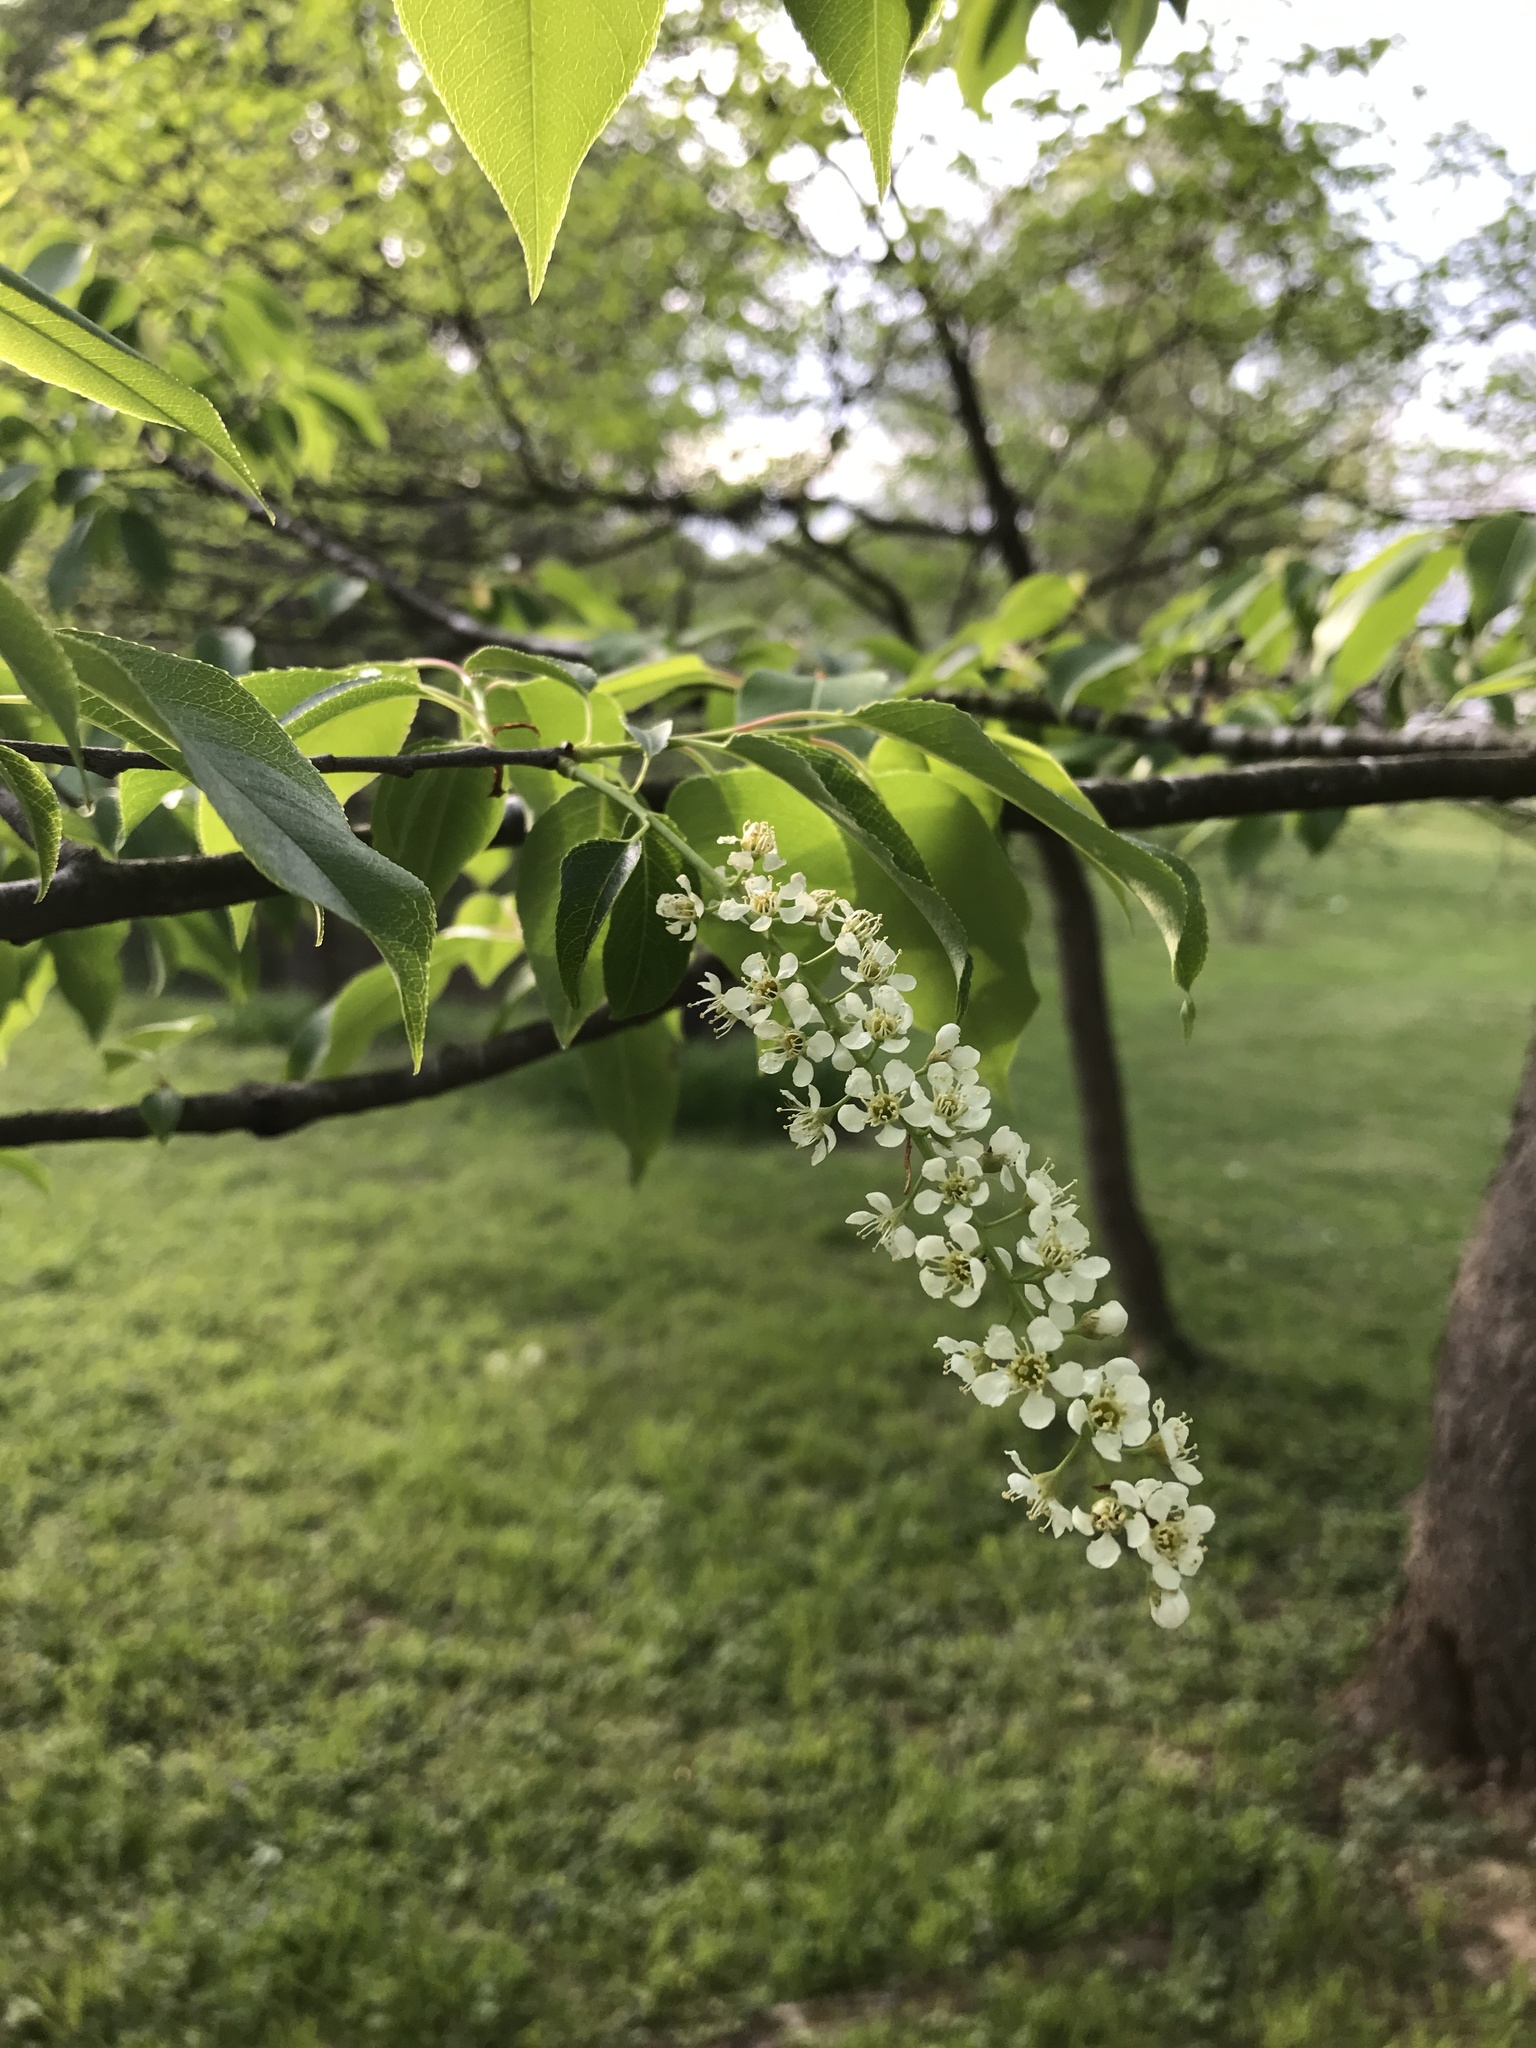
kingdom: Plantae
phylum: Tracheophyta
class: Magnoliopsida
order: Rosales
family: Rosaceae
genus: Prunus
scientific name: Prunus serotina
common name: Black cherry
